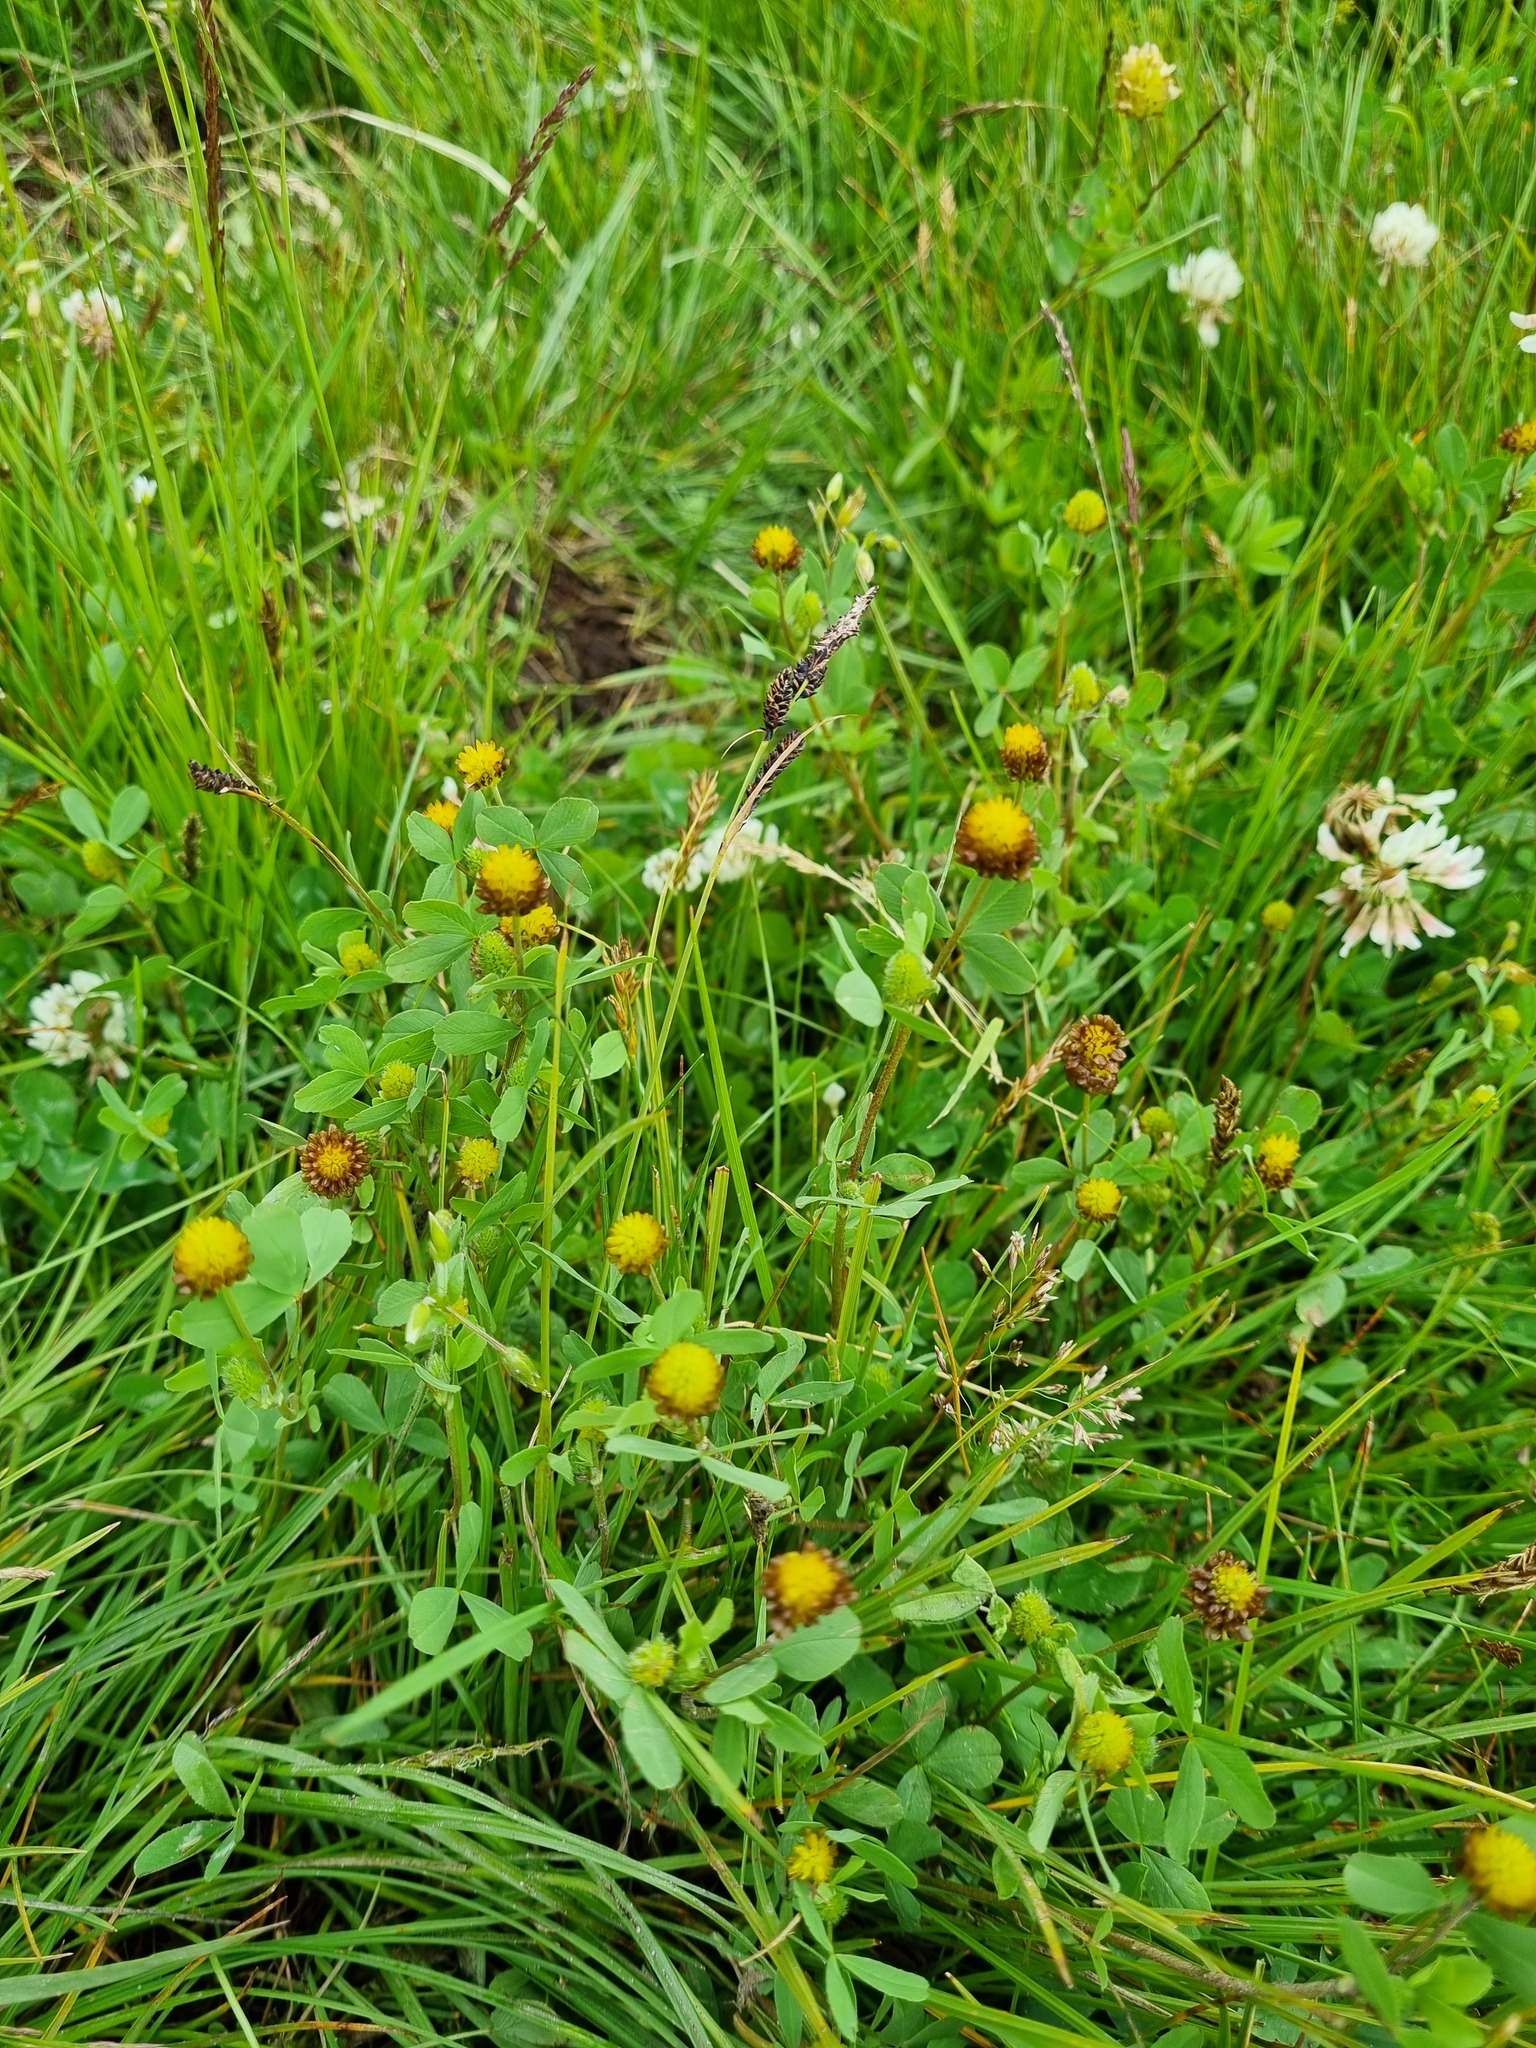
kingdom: Plantae
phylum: Tracheophyta
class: Magnoliopsida
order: Fabales
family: Fabaceae
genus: Trifolium
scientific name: Trifolium spadiceum
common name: Brown moor clover
